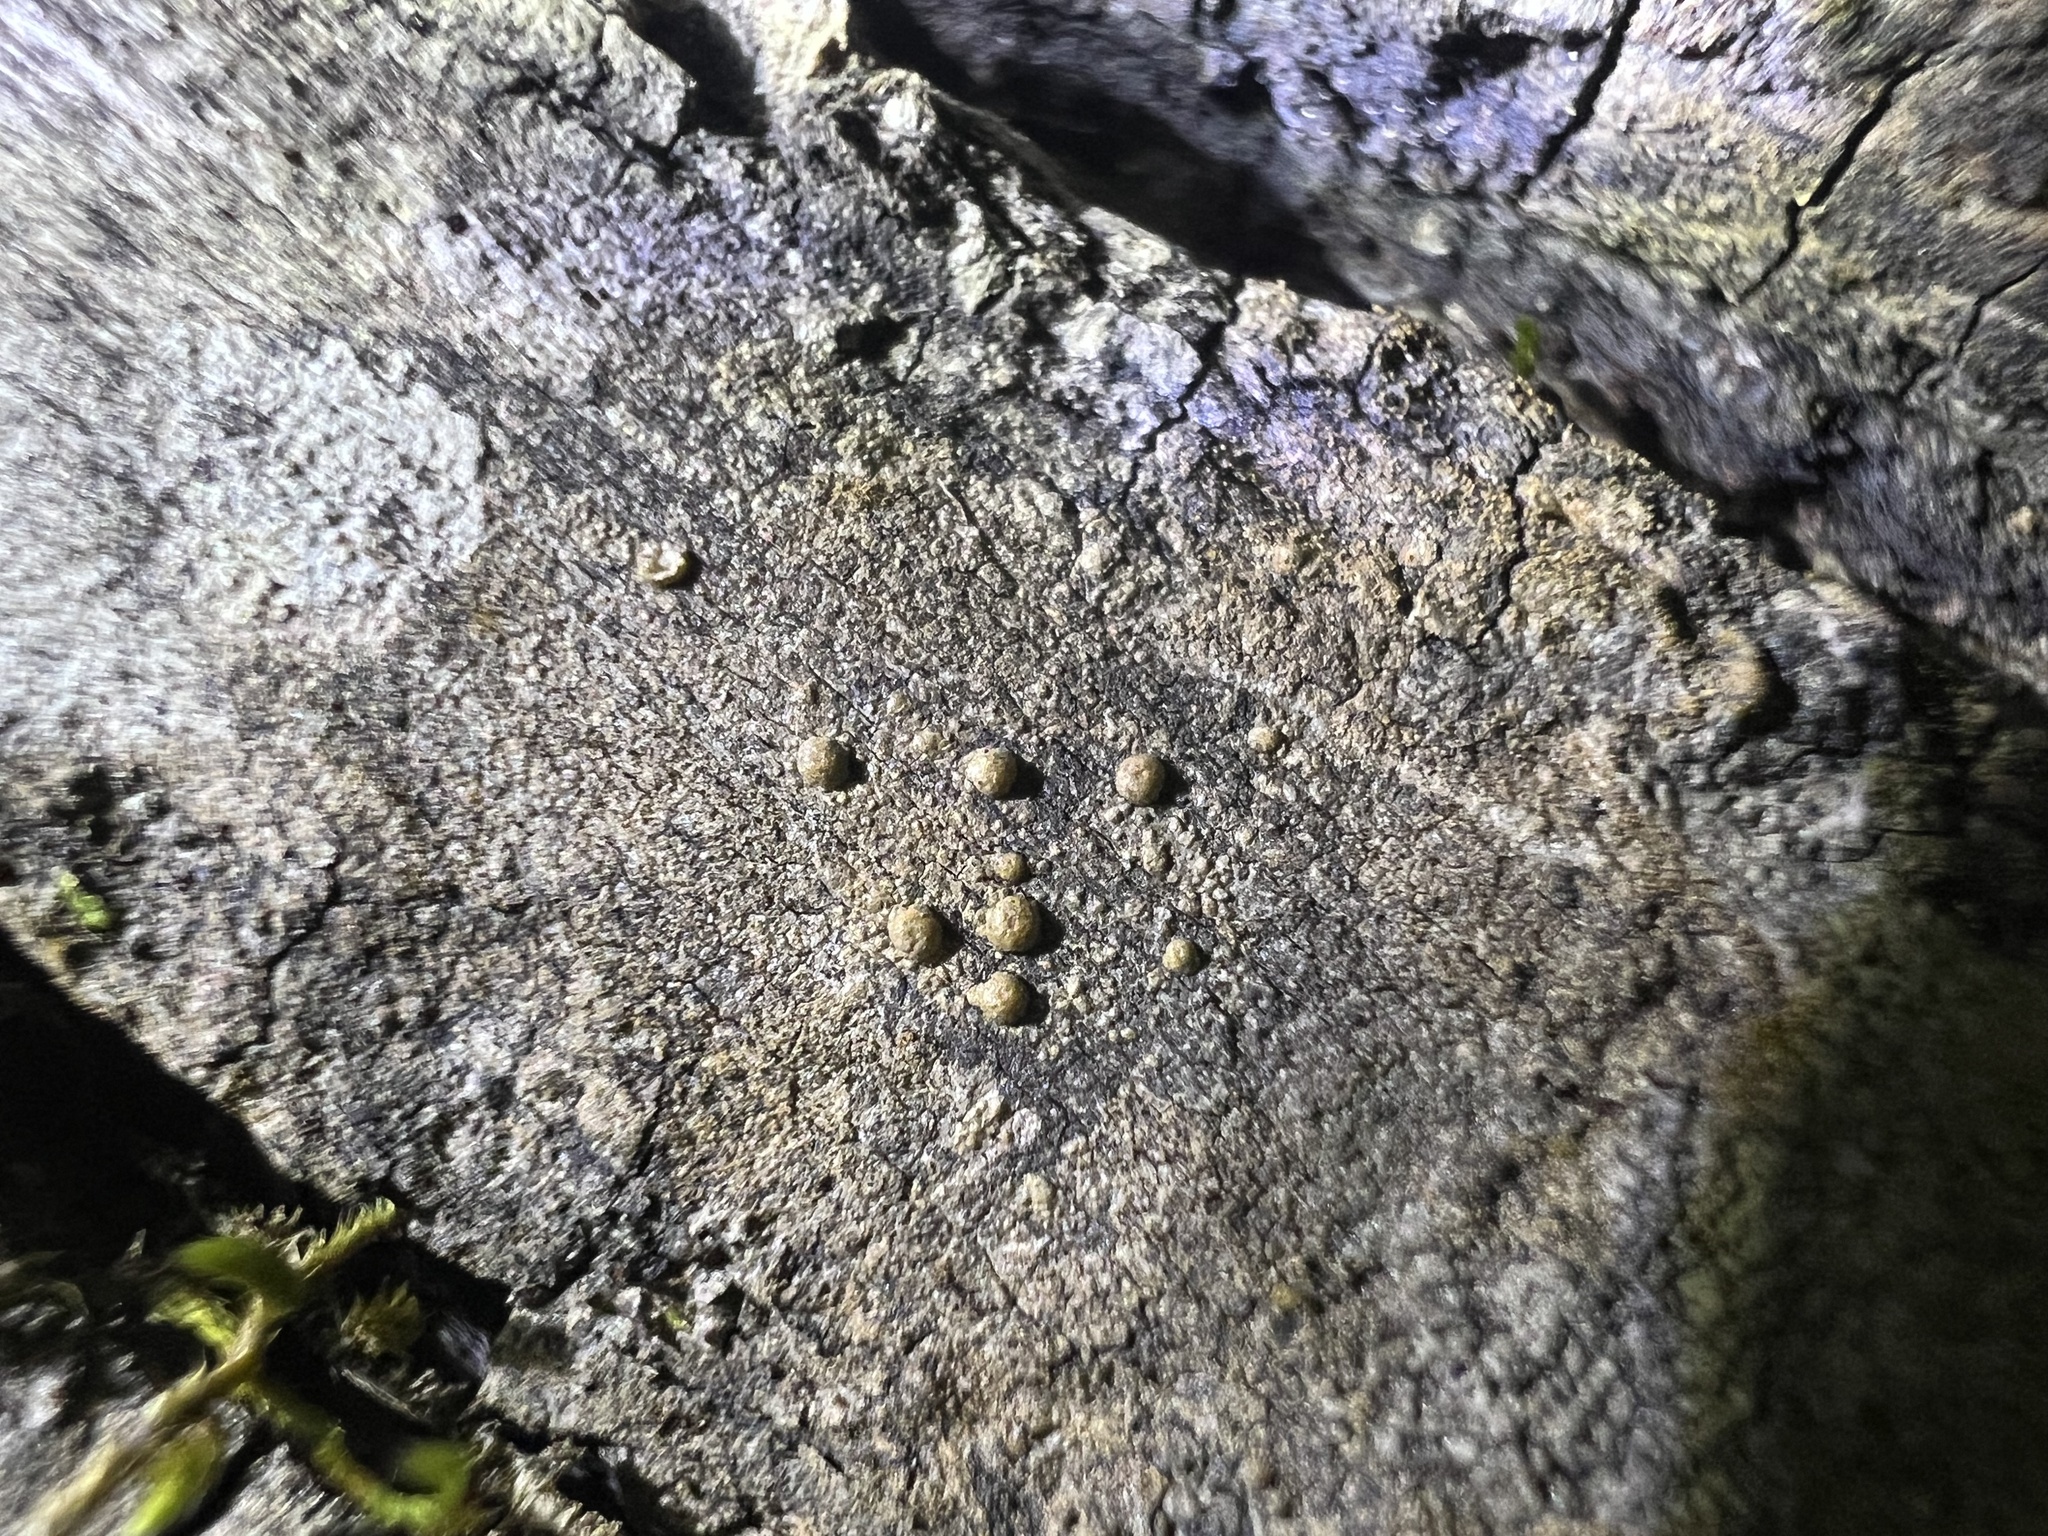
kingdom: Fungi
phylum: Ascomycota
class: Lecanoromycetes
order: Pertusariales
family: Pertusariaceae
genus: Porina
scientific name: Porina heterospora
